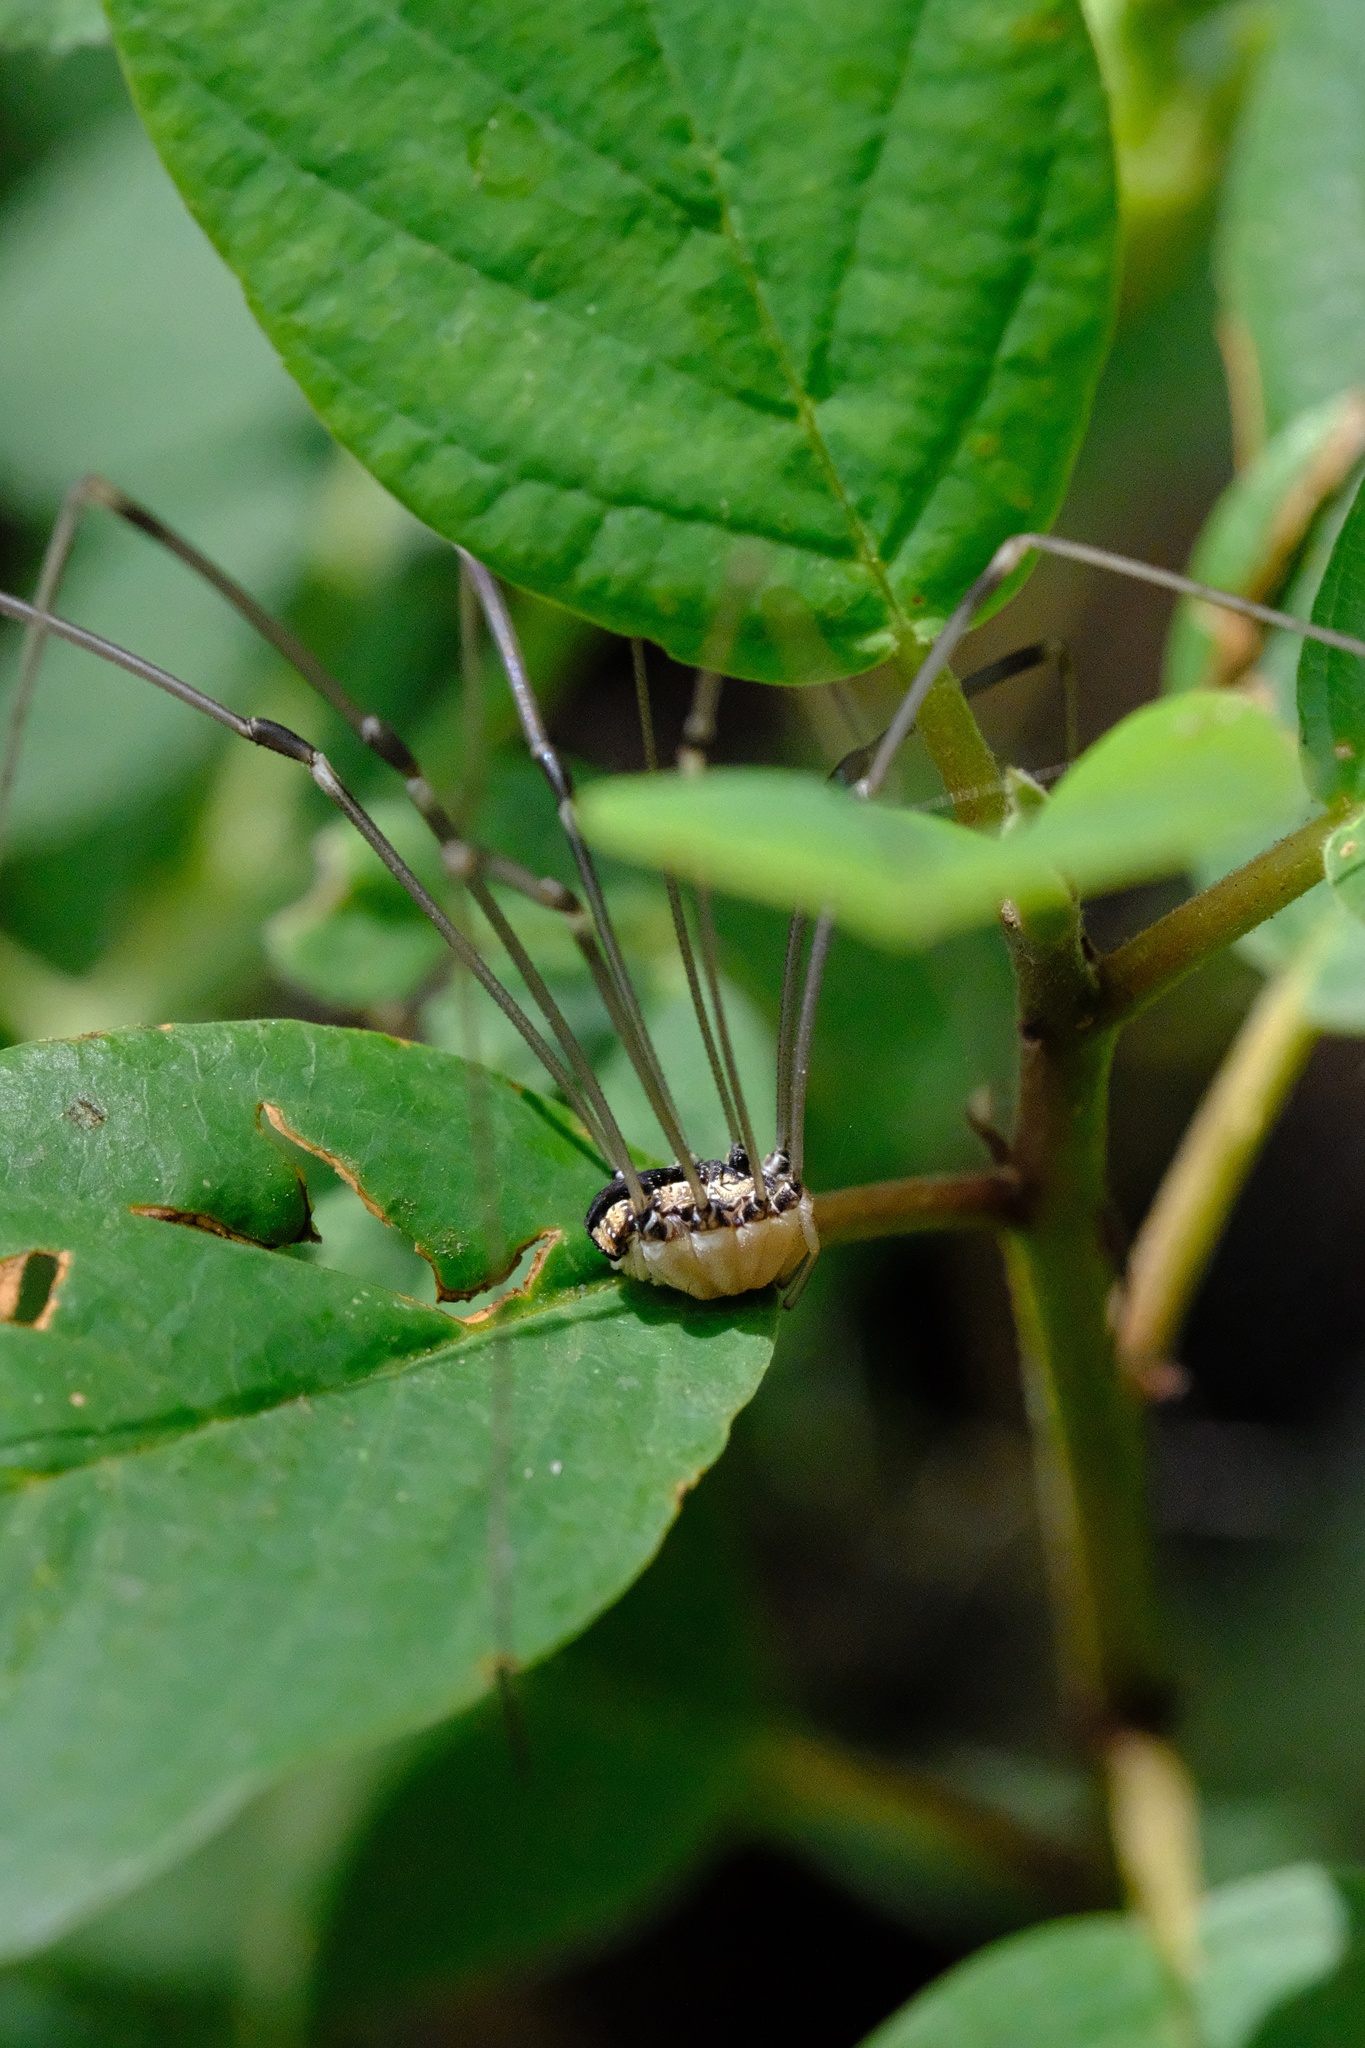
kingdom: Animalia
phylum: Arthropoda
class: Arachnida
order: Opiliones
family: Sclerosomatidae
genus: Leuronychus
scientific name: Leuronychus pacificus
